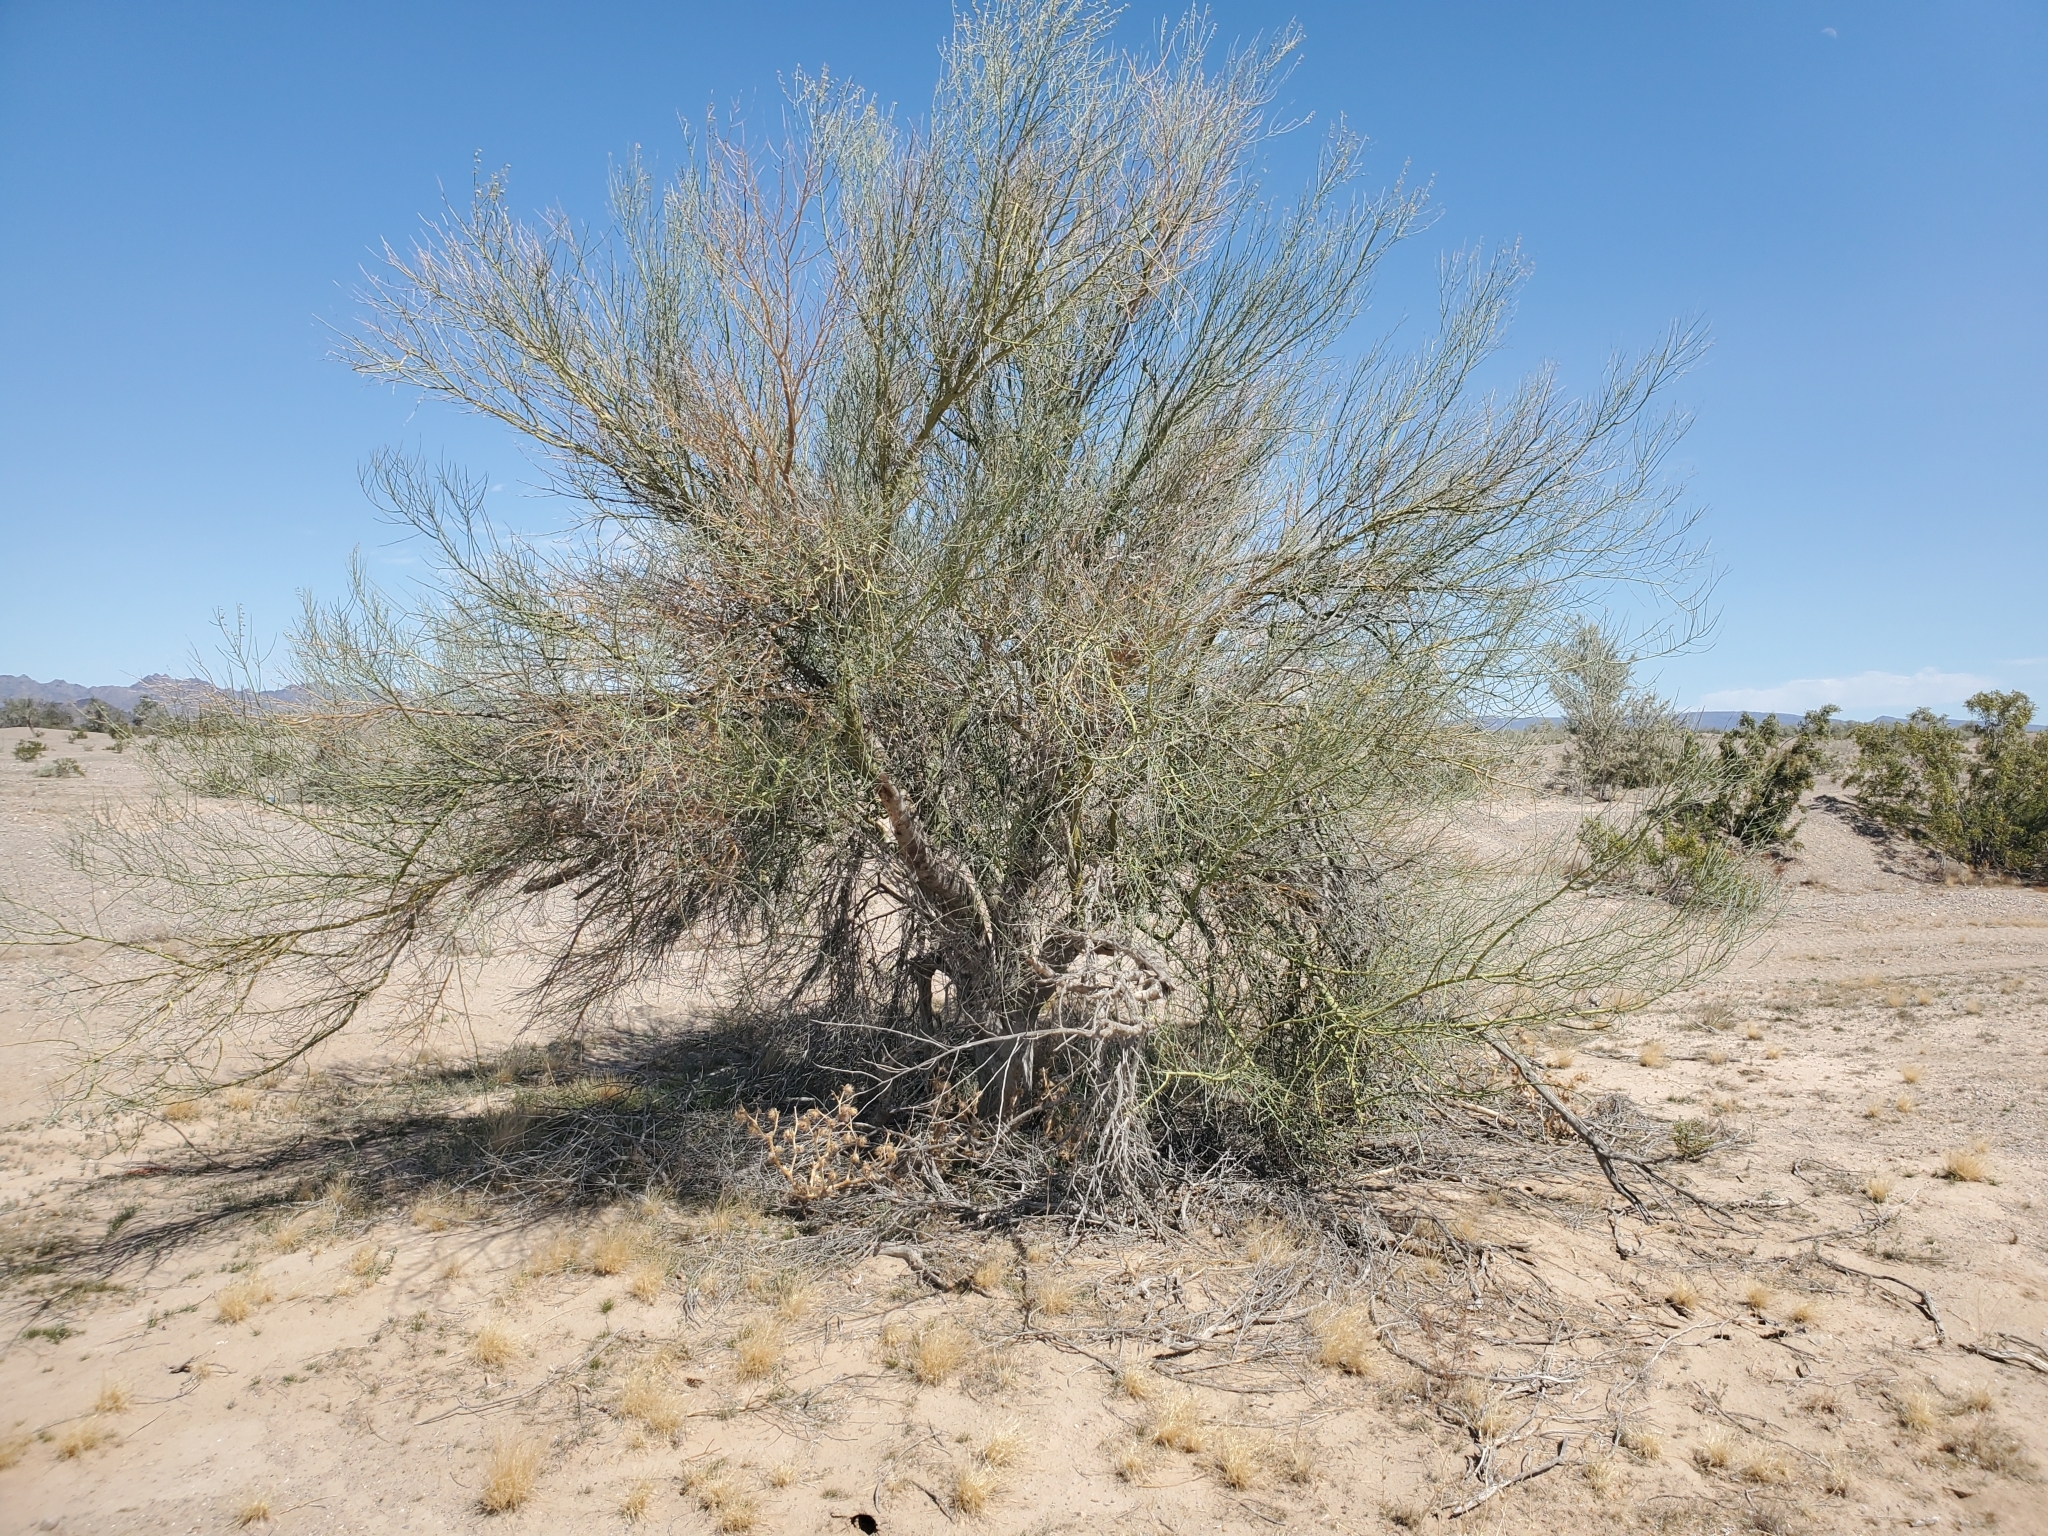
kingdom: Plantae
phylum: Tracheophyta
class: Magnoliopsida
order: Fabales
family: Fabaceae
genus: Parkinsonia
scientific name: Parkinsonia florida
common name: Blue paloverde
